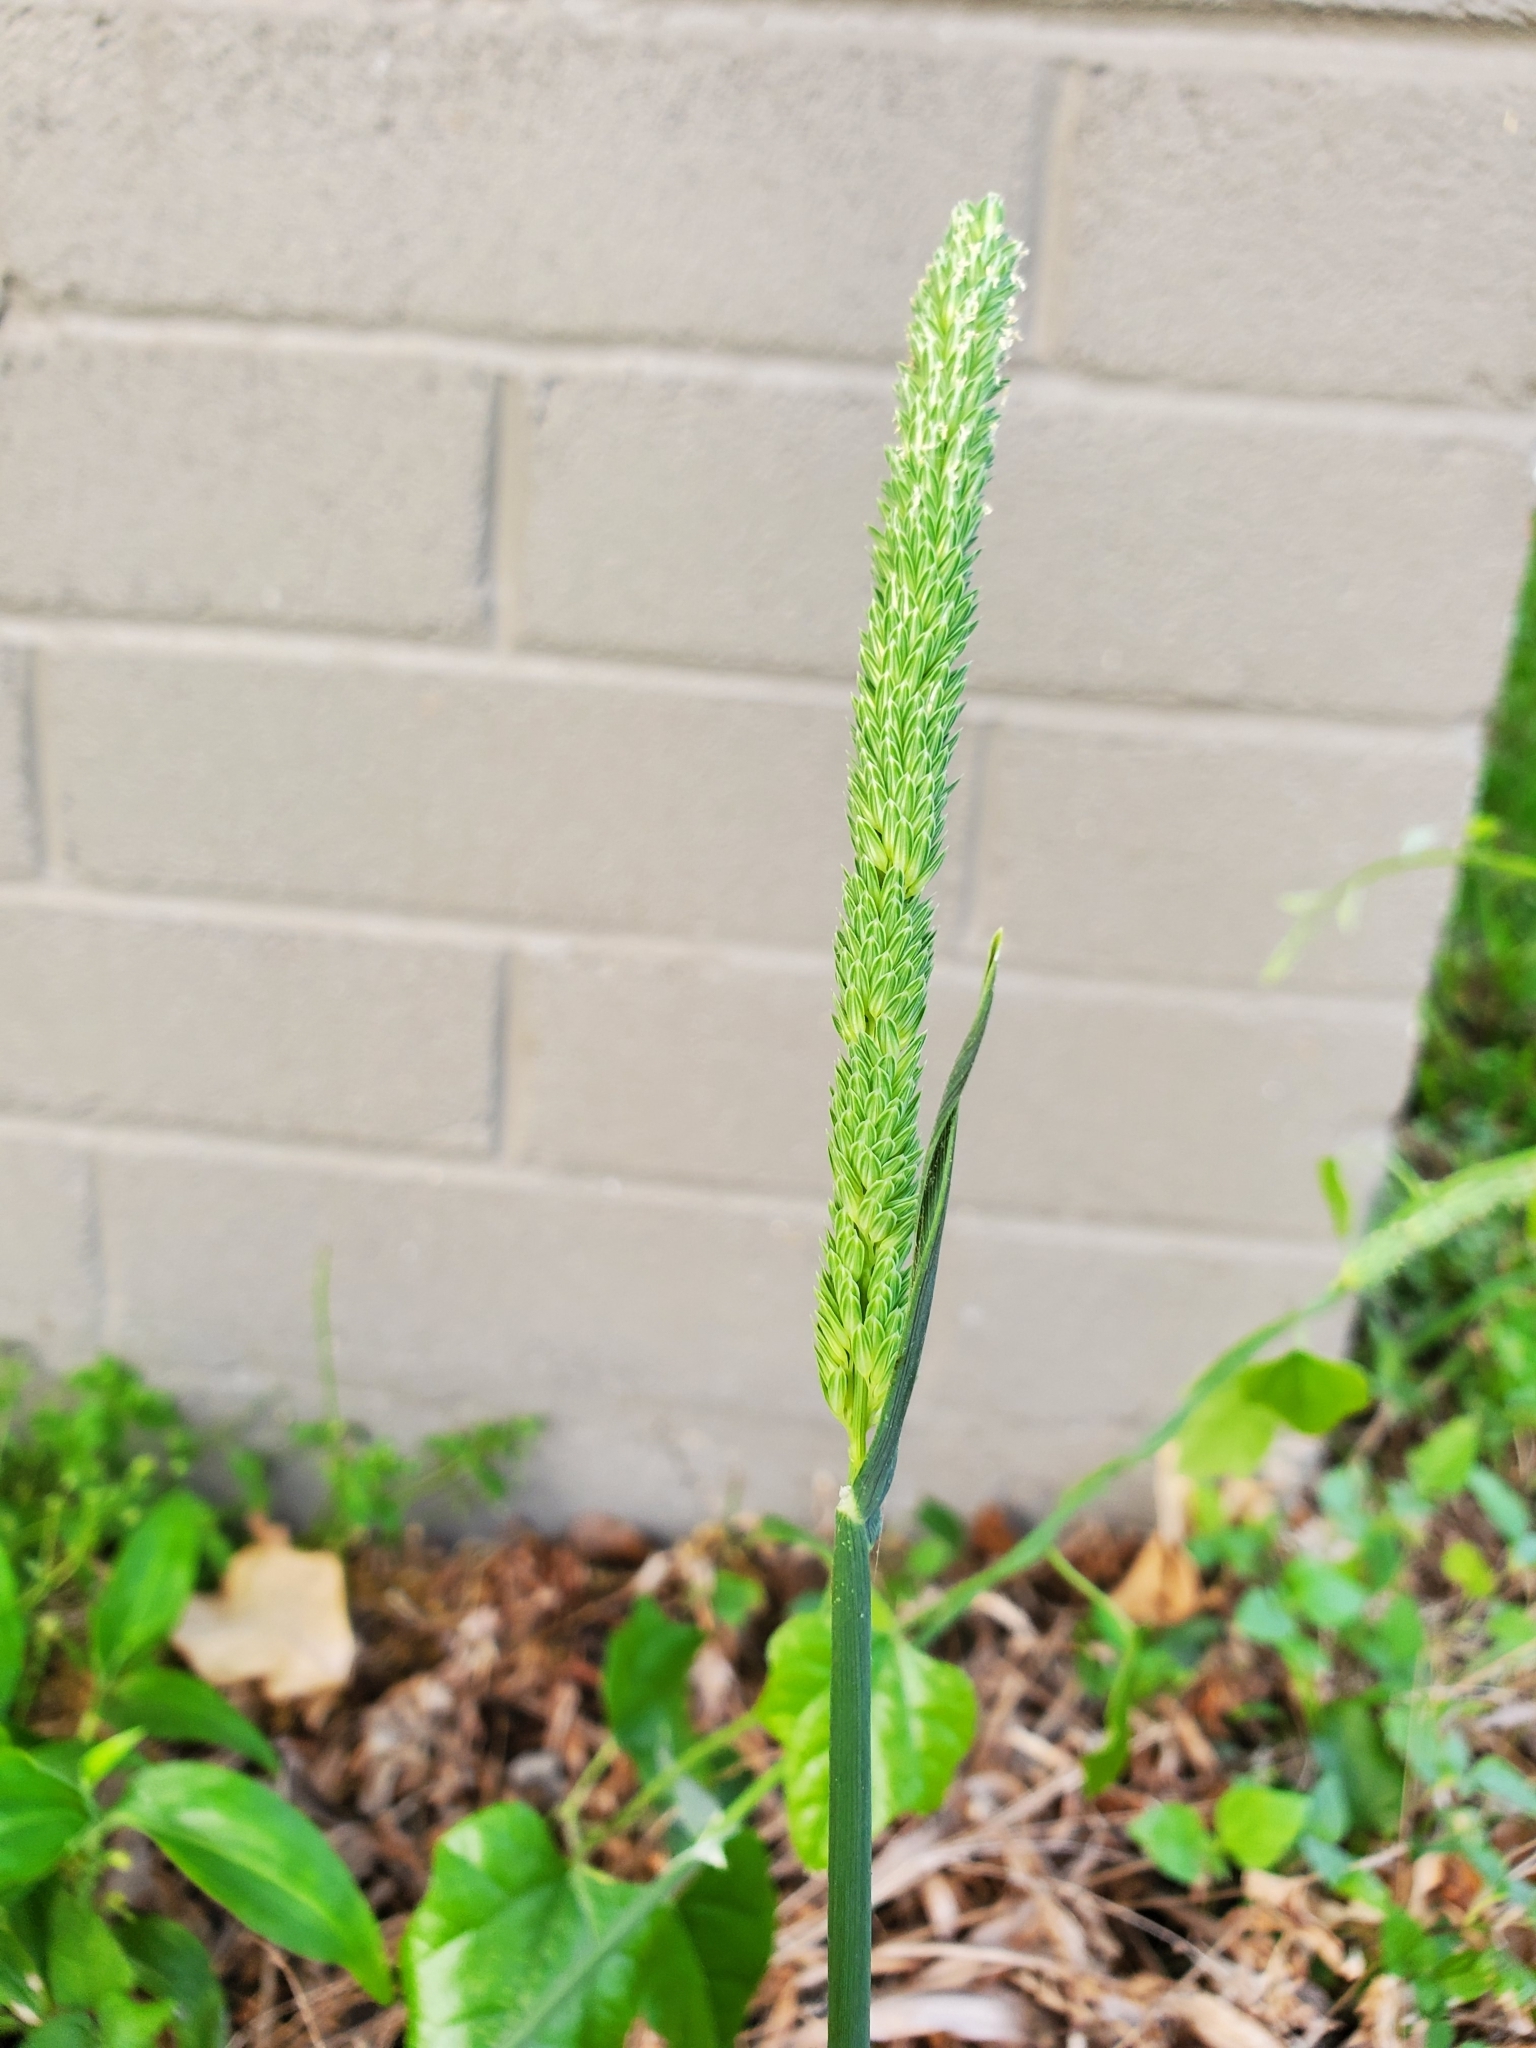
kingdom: Plantae
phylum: Tracheophyta
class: Liliopsida
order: Poales
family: Poaceae
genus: Phalaris
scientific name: Phalaris angusta
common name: Narrow canary grass
